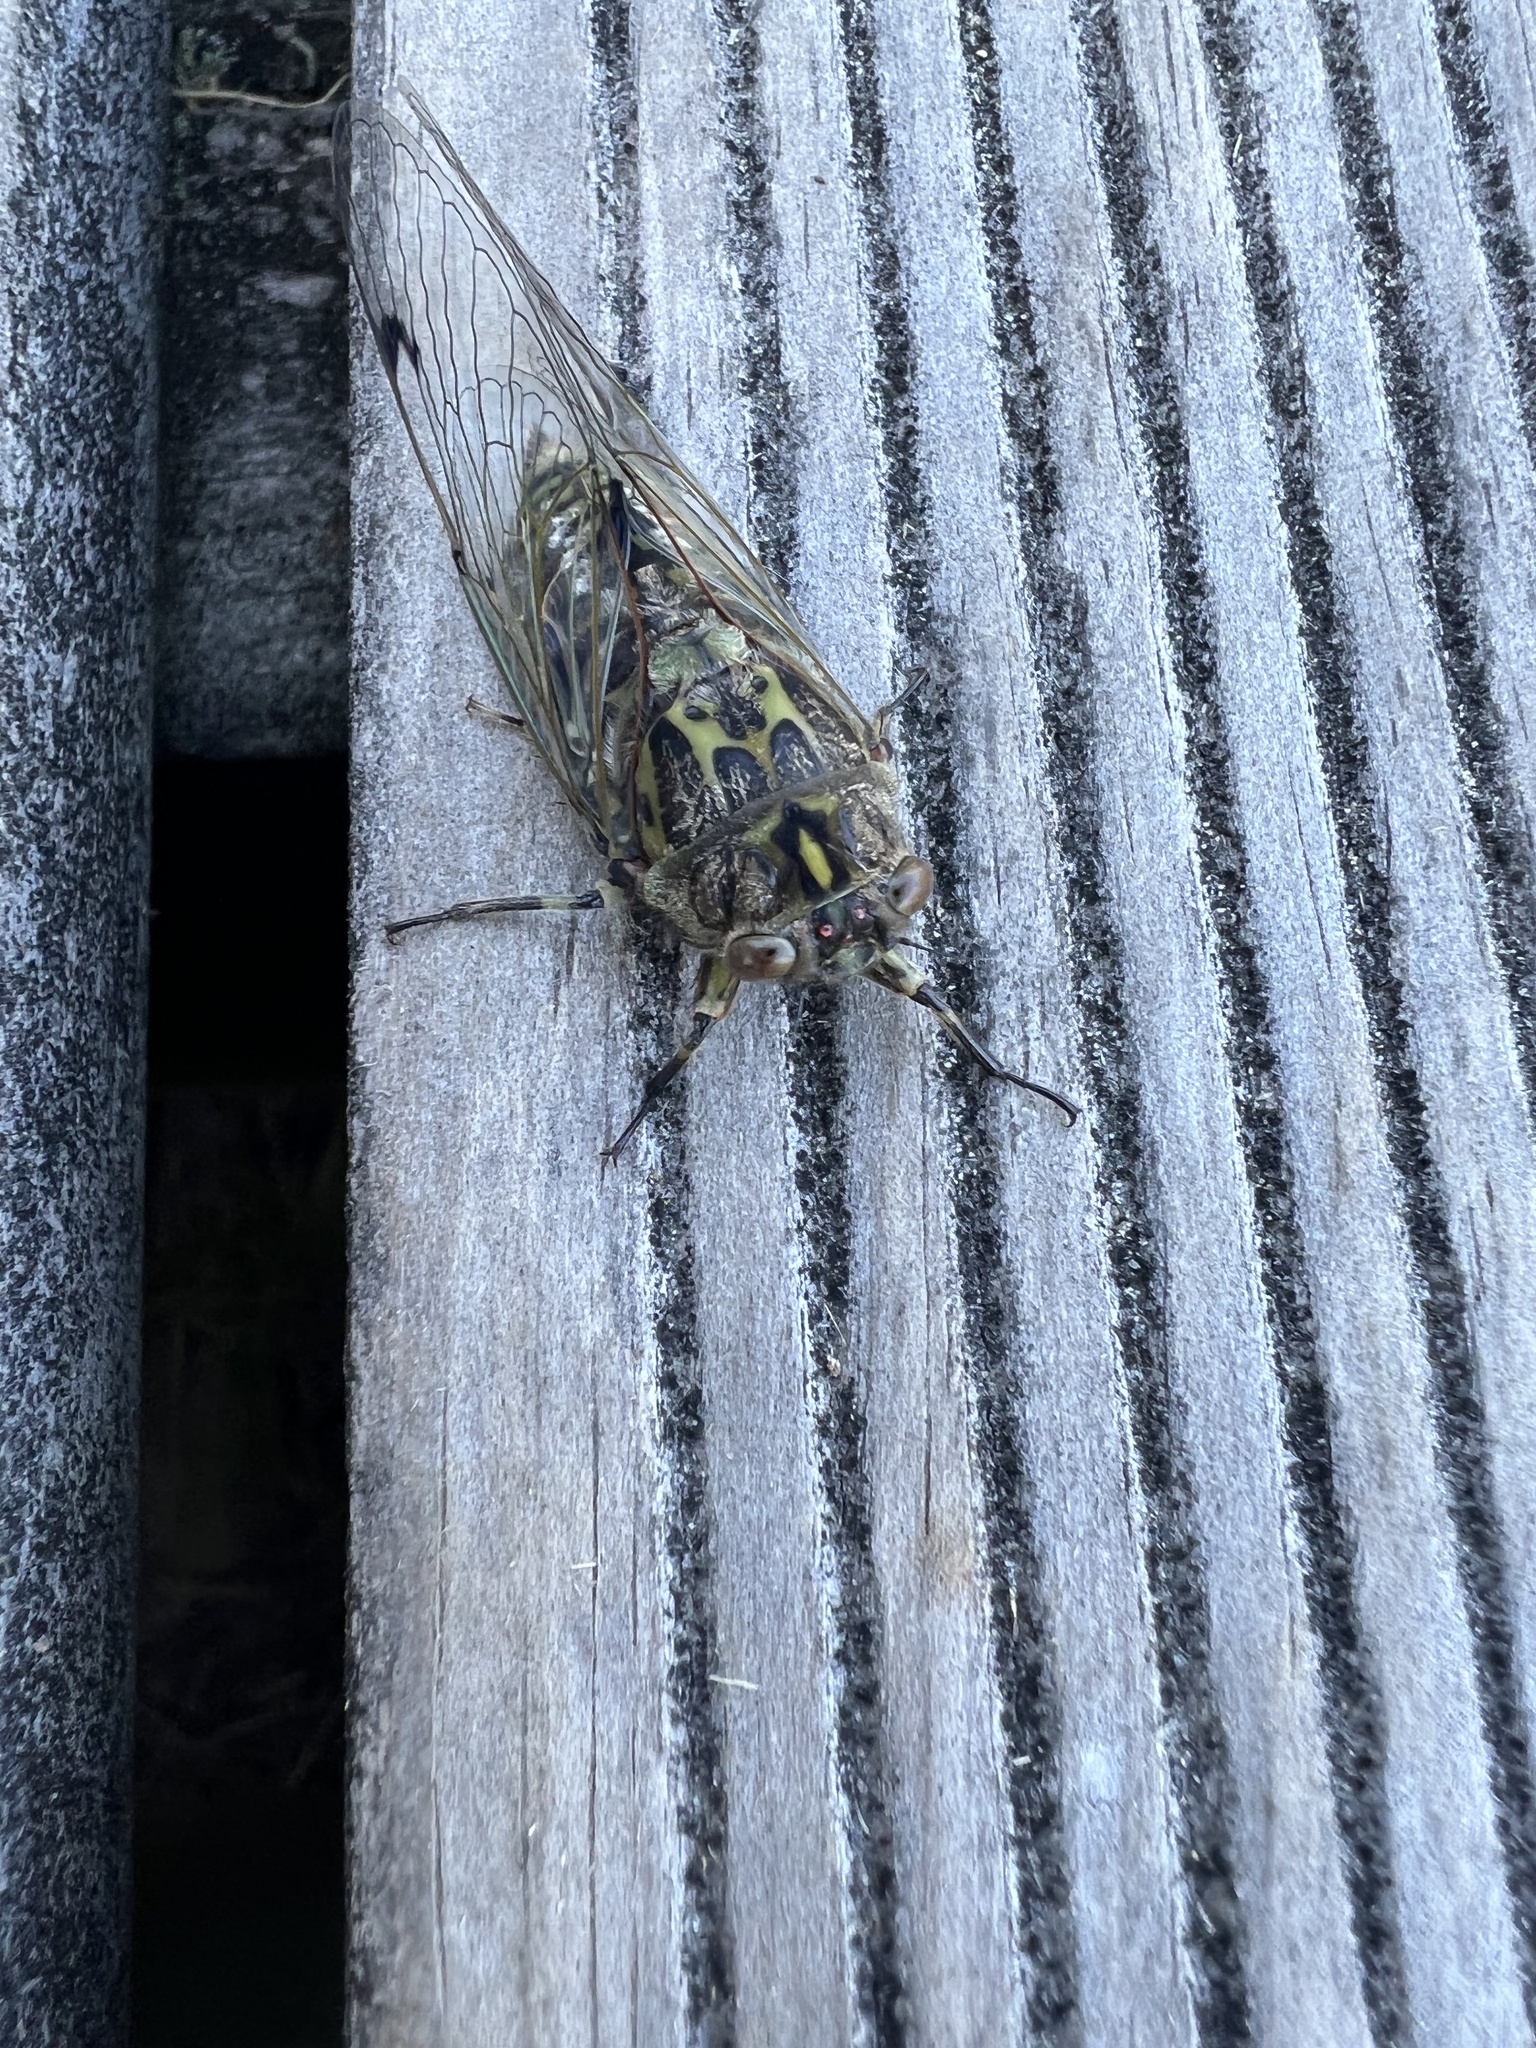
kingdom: Animalia
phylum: Arthropoda
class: Insecta
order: Hemiptera
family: Cicadidae
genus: Amphipsalta
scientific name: Amphipsalta zelandica
